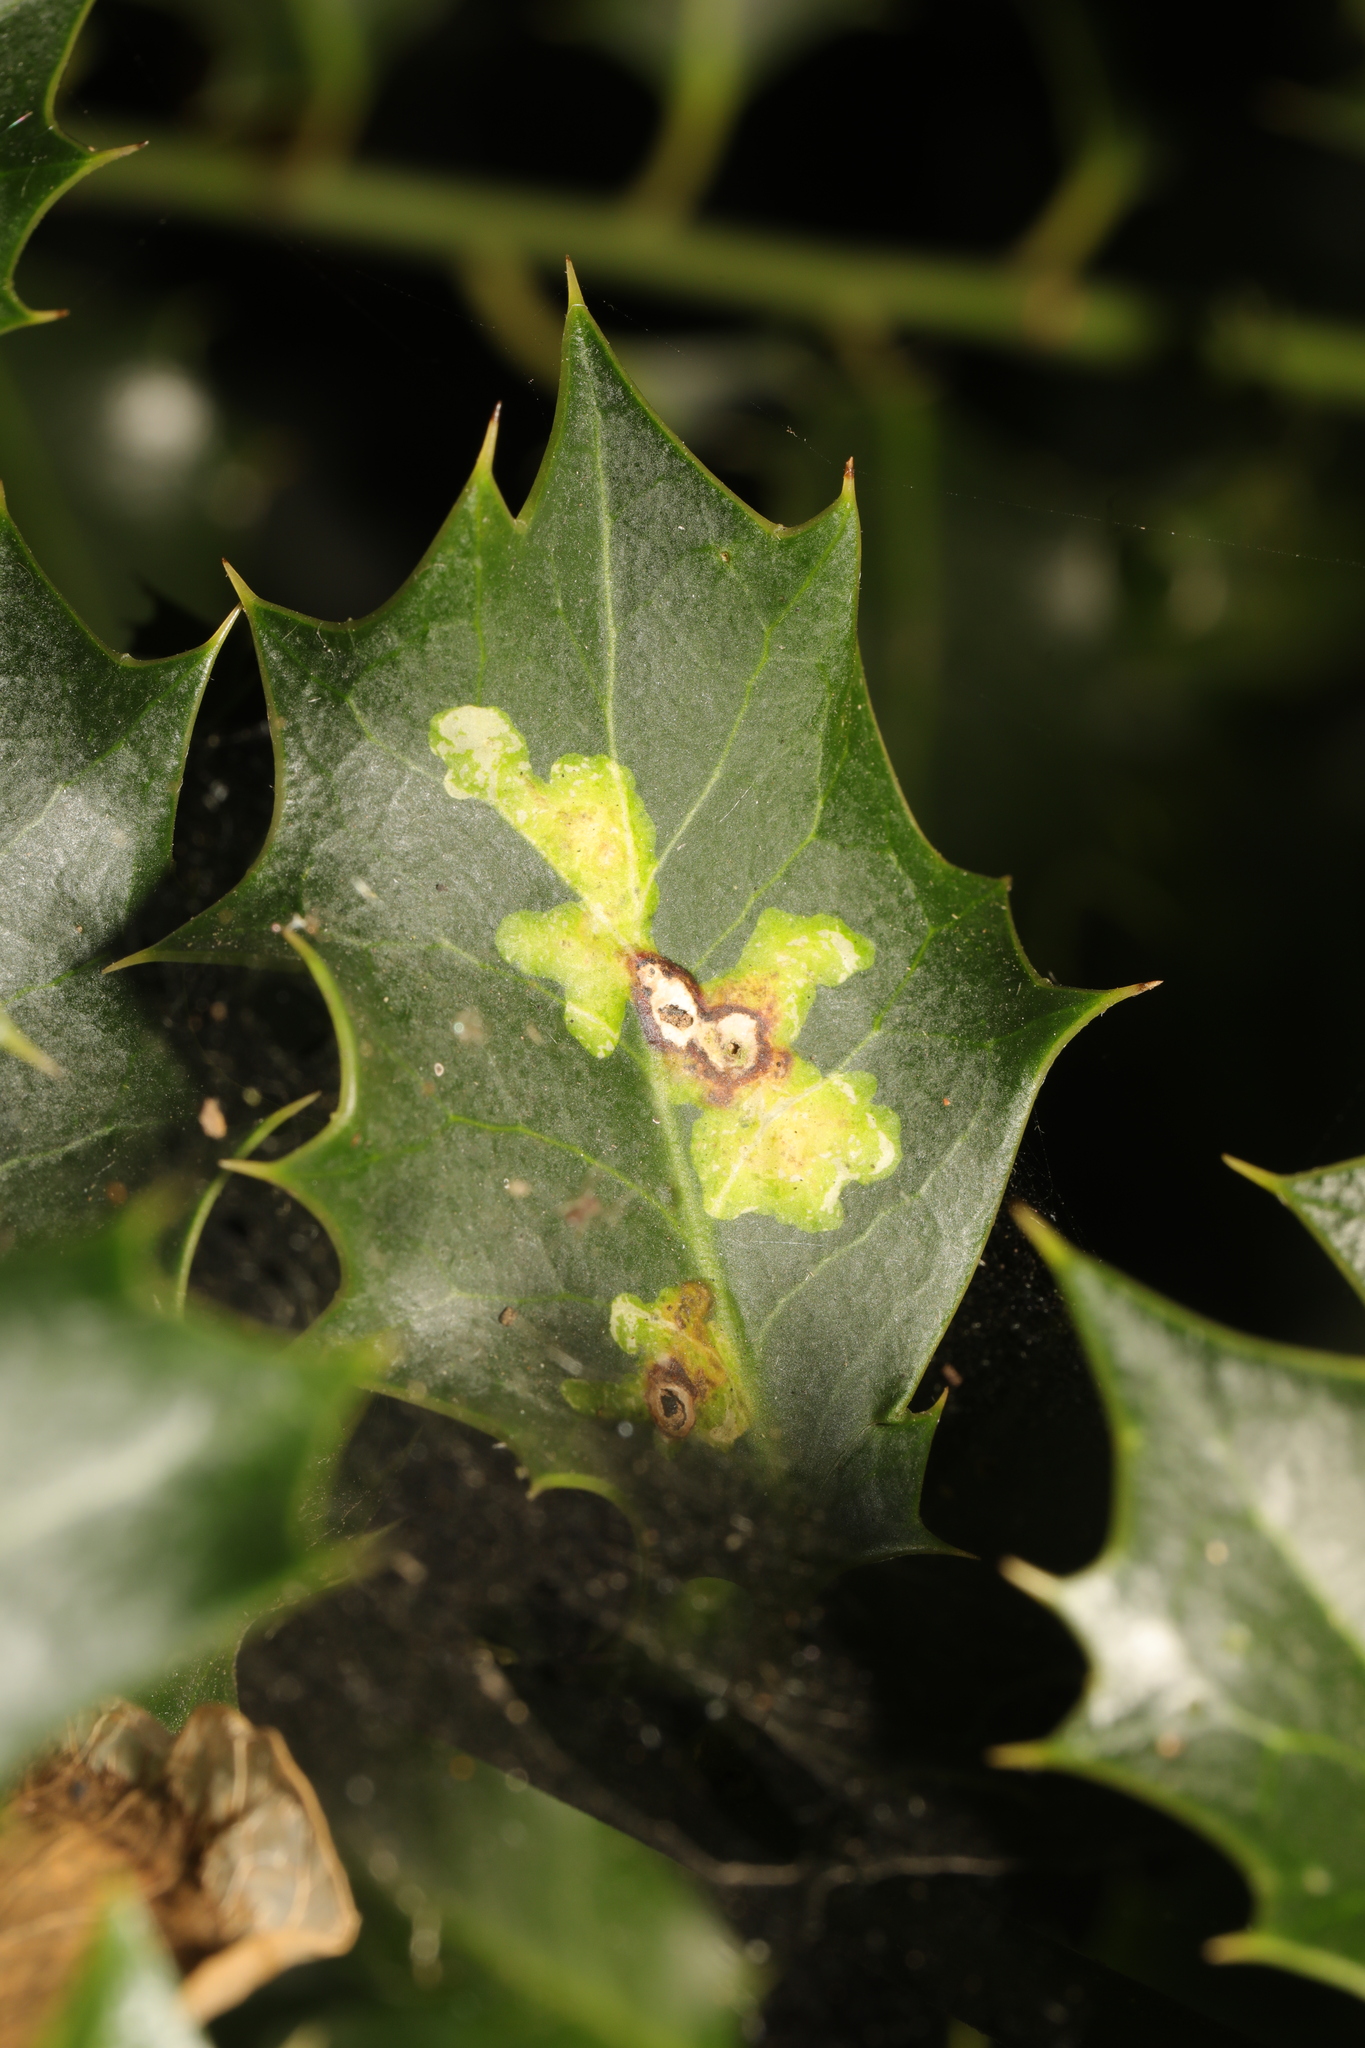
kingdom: Animalia
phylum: Arthropoda
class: Insecta
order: Diptera
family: Agromyzidae
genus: Phytomyza
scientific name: Phytomyza ilicis
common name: Holly leafminer
